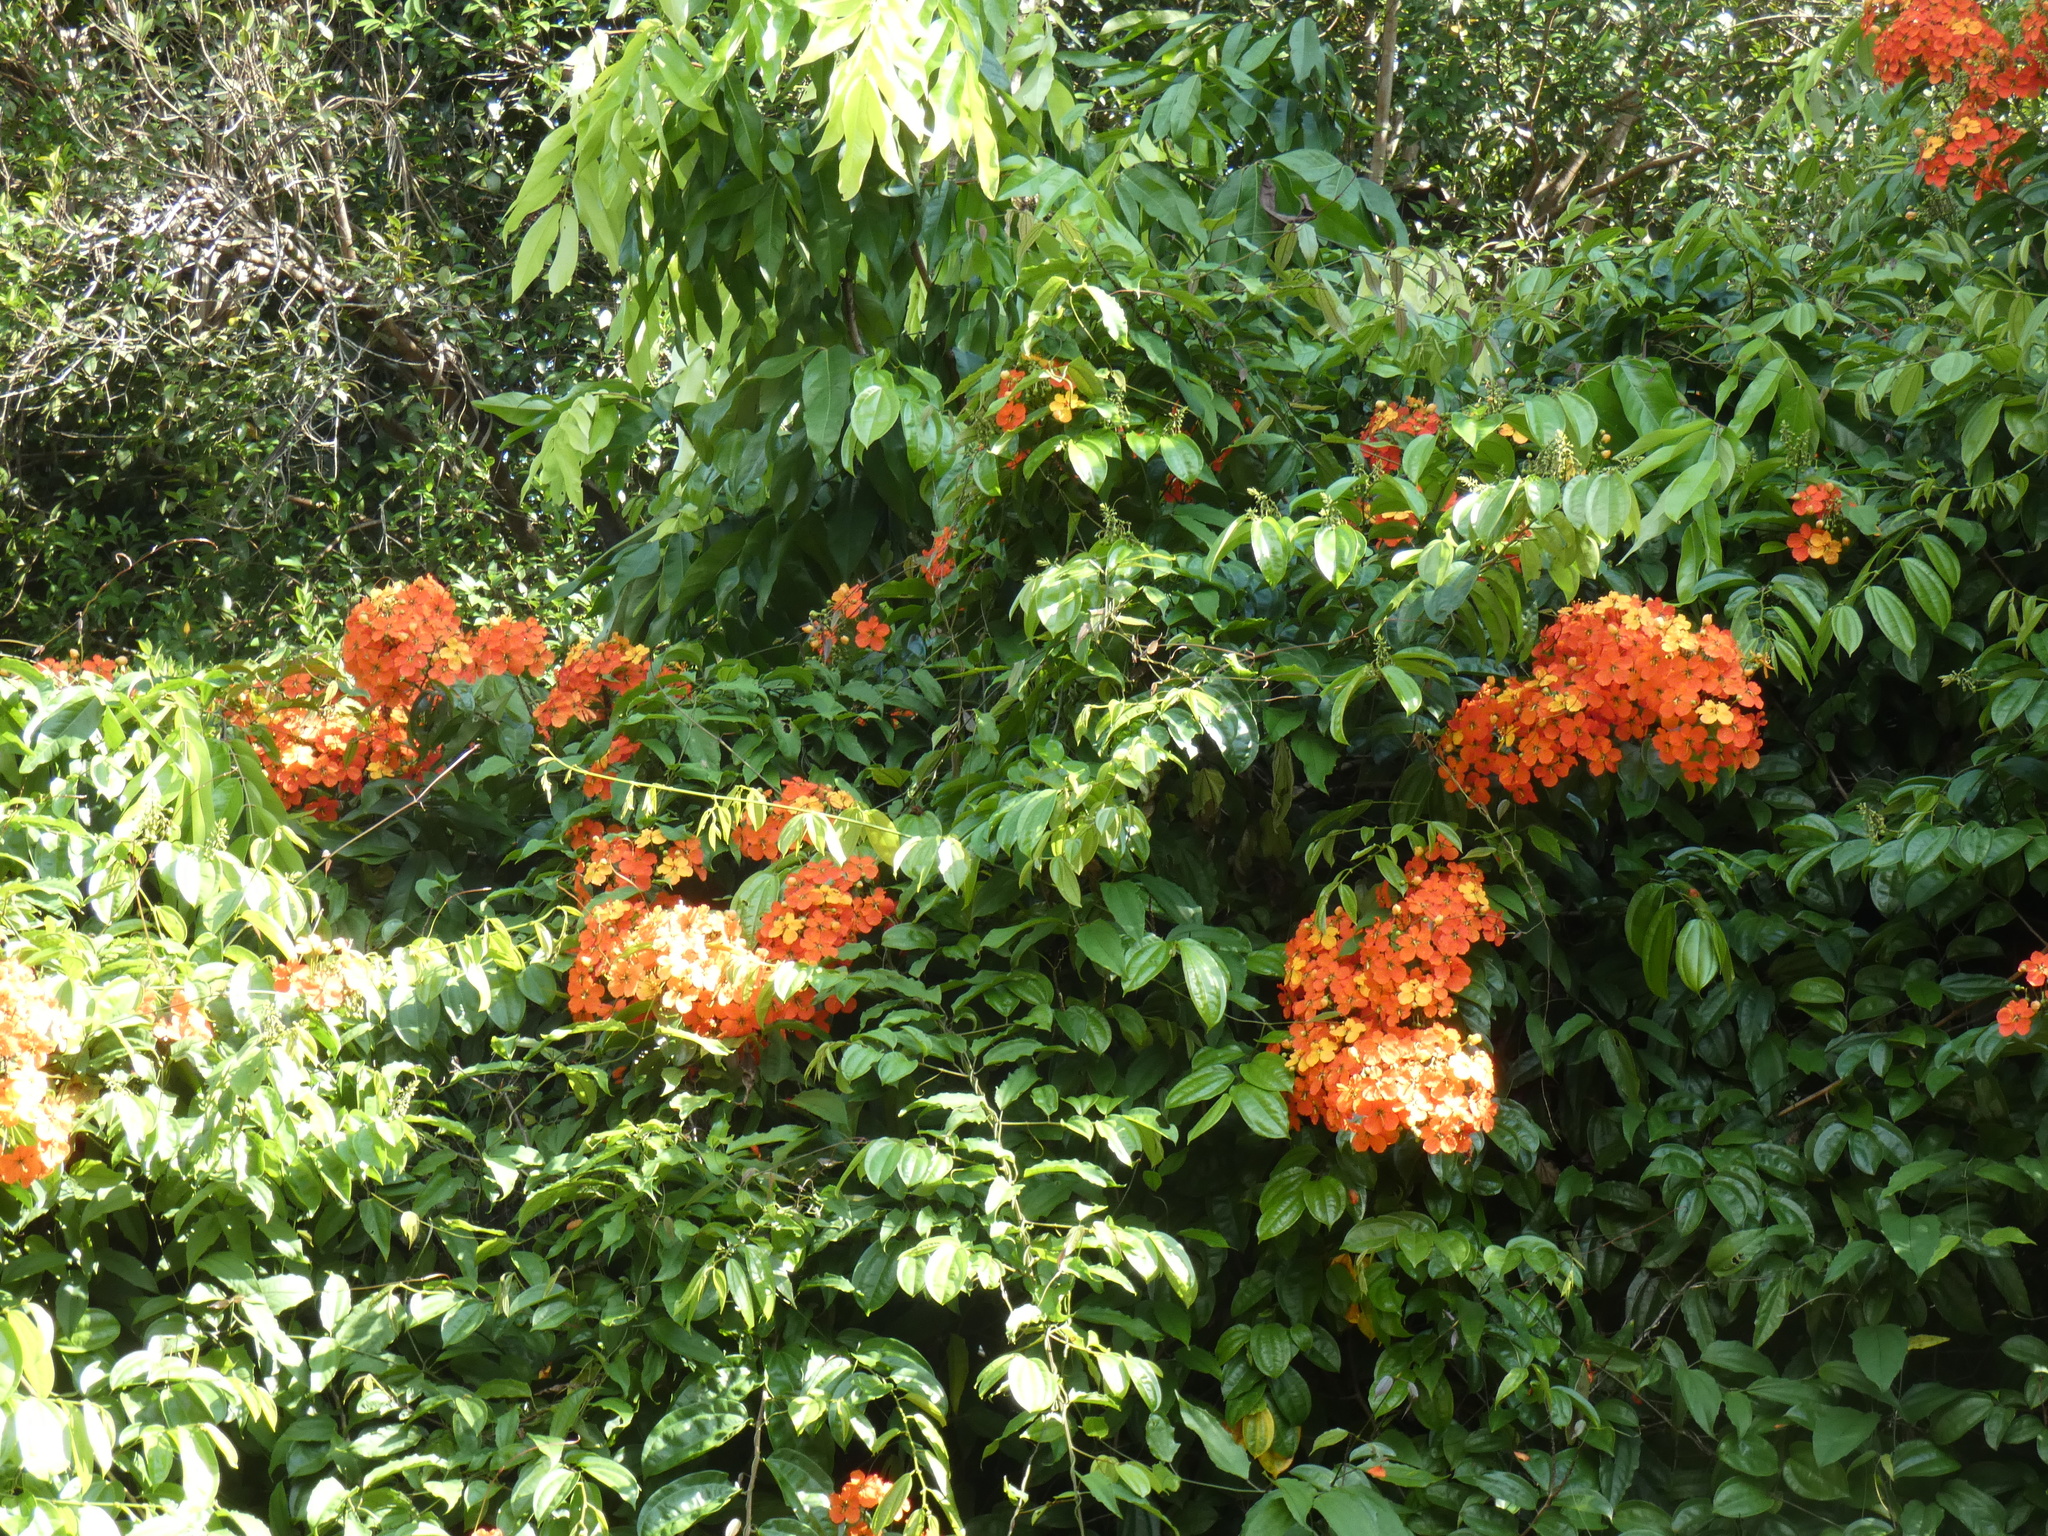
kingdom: Plantae
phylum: Tracheophyta
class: Magnoliopsida
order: Fabales
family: Fabaceae
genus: Phanera
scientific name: Phanera kockiana
